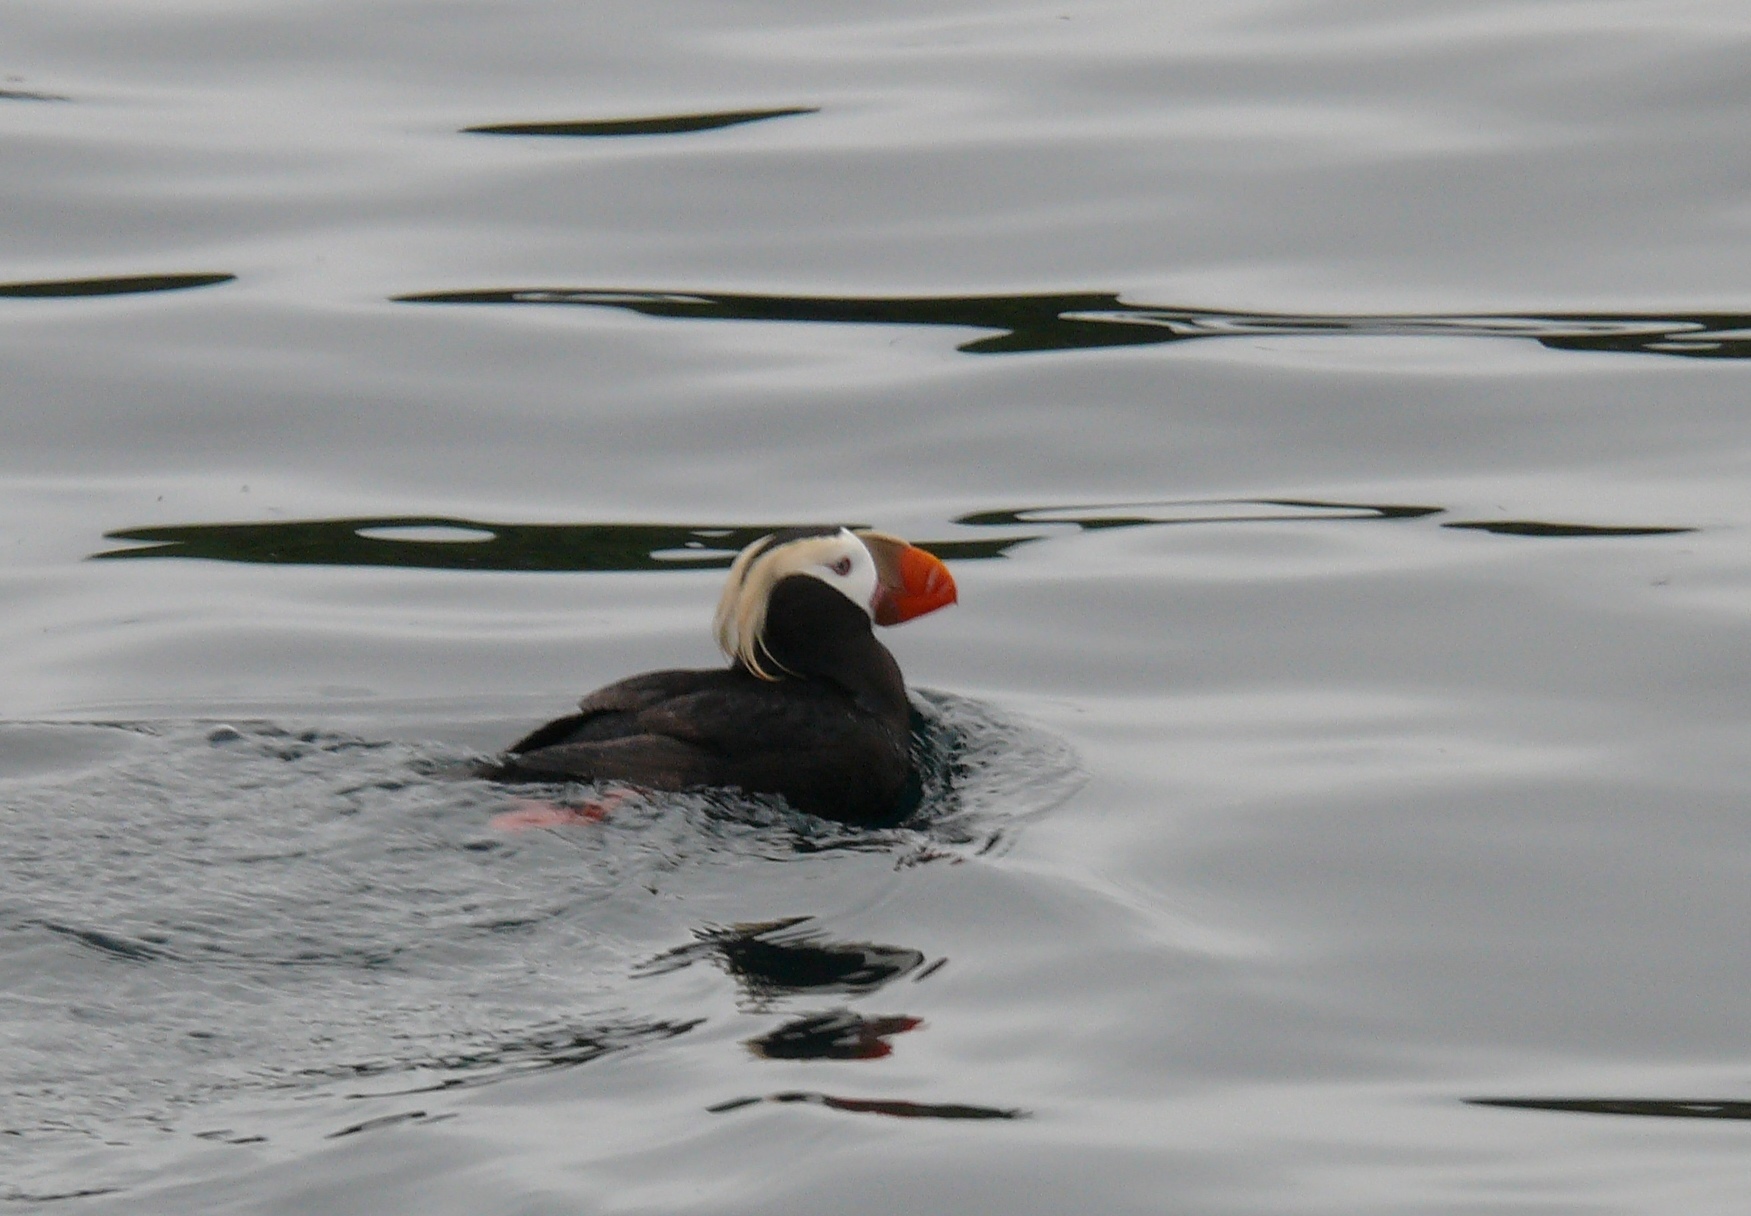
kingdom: Animalia
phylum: Chordata
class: Aves
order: Charadriiformes
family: Alcidae
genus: Fratercula
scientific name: Fratercula cirrhata
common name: Tufted puffin
